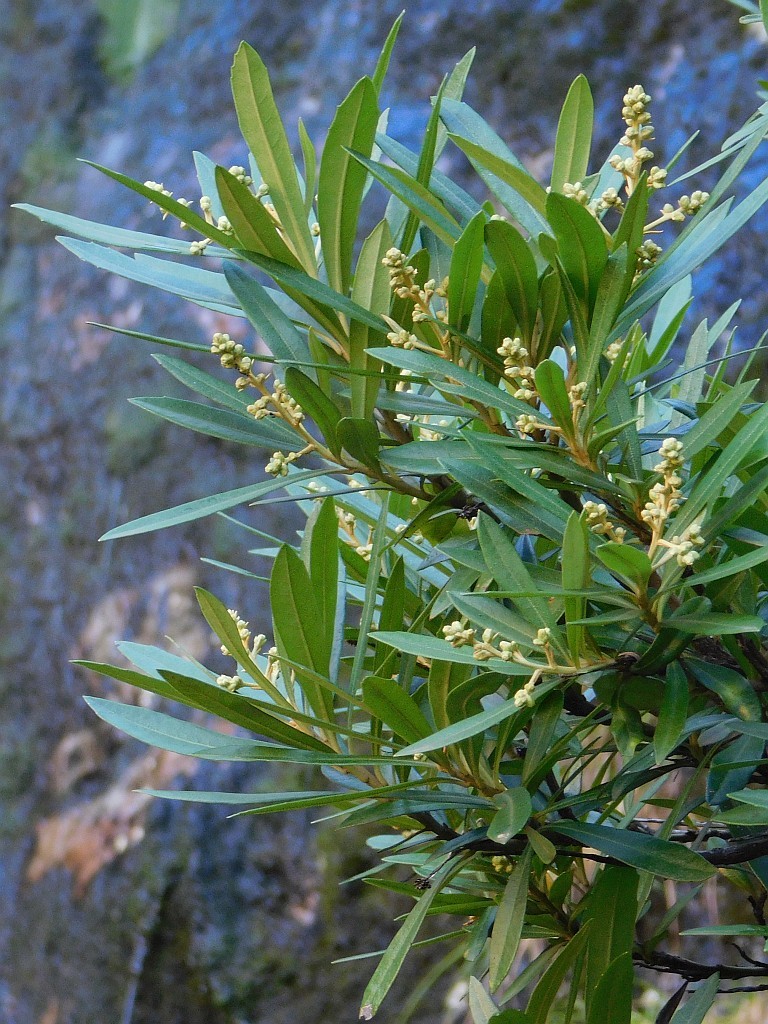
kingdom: Plantae
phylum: Tracheophyta
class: Magnoliopsida
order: Asterales
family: Asteraceae
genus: Brachylaena
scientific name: Brachylaena neriifolia
